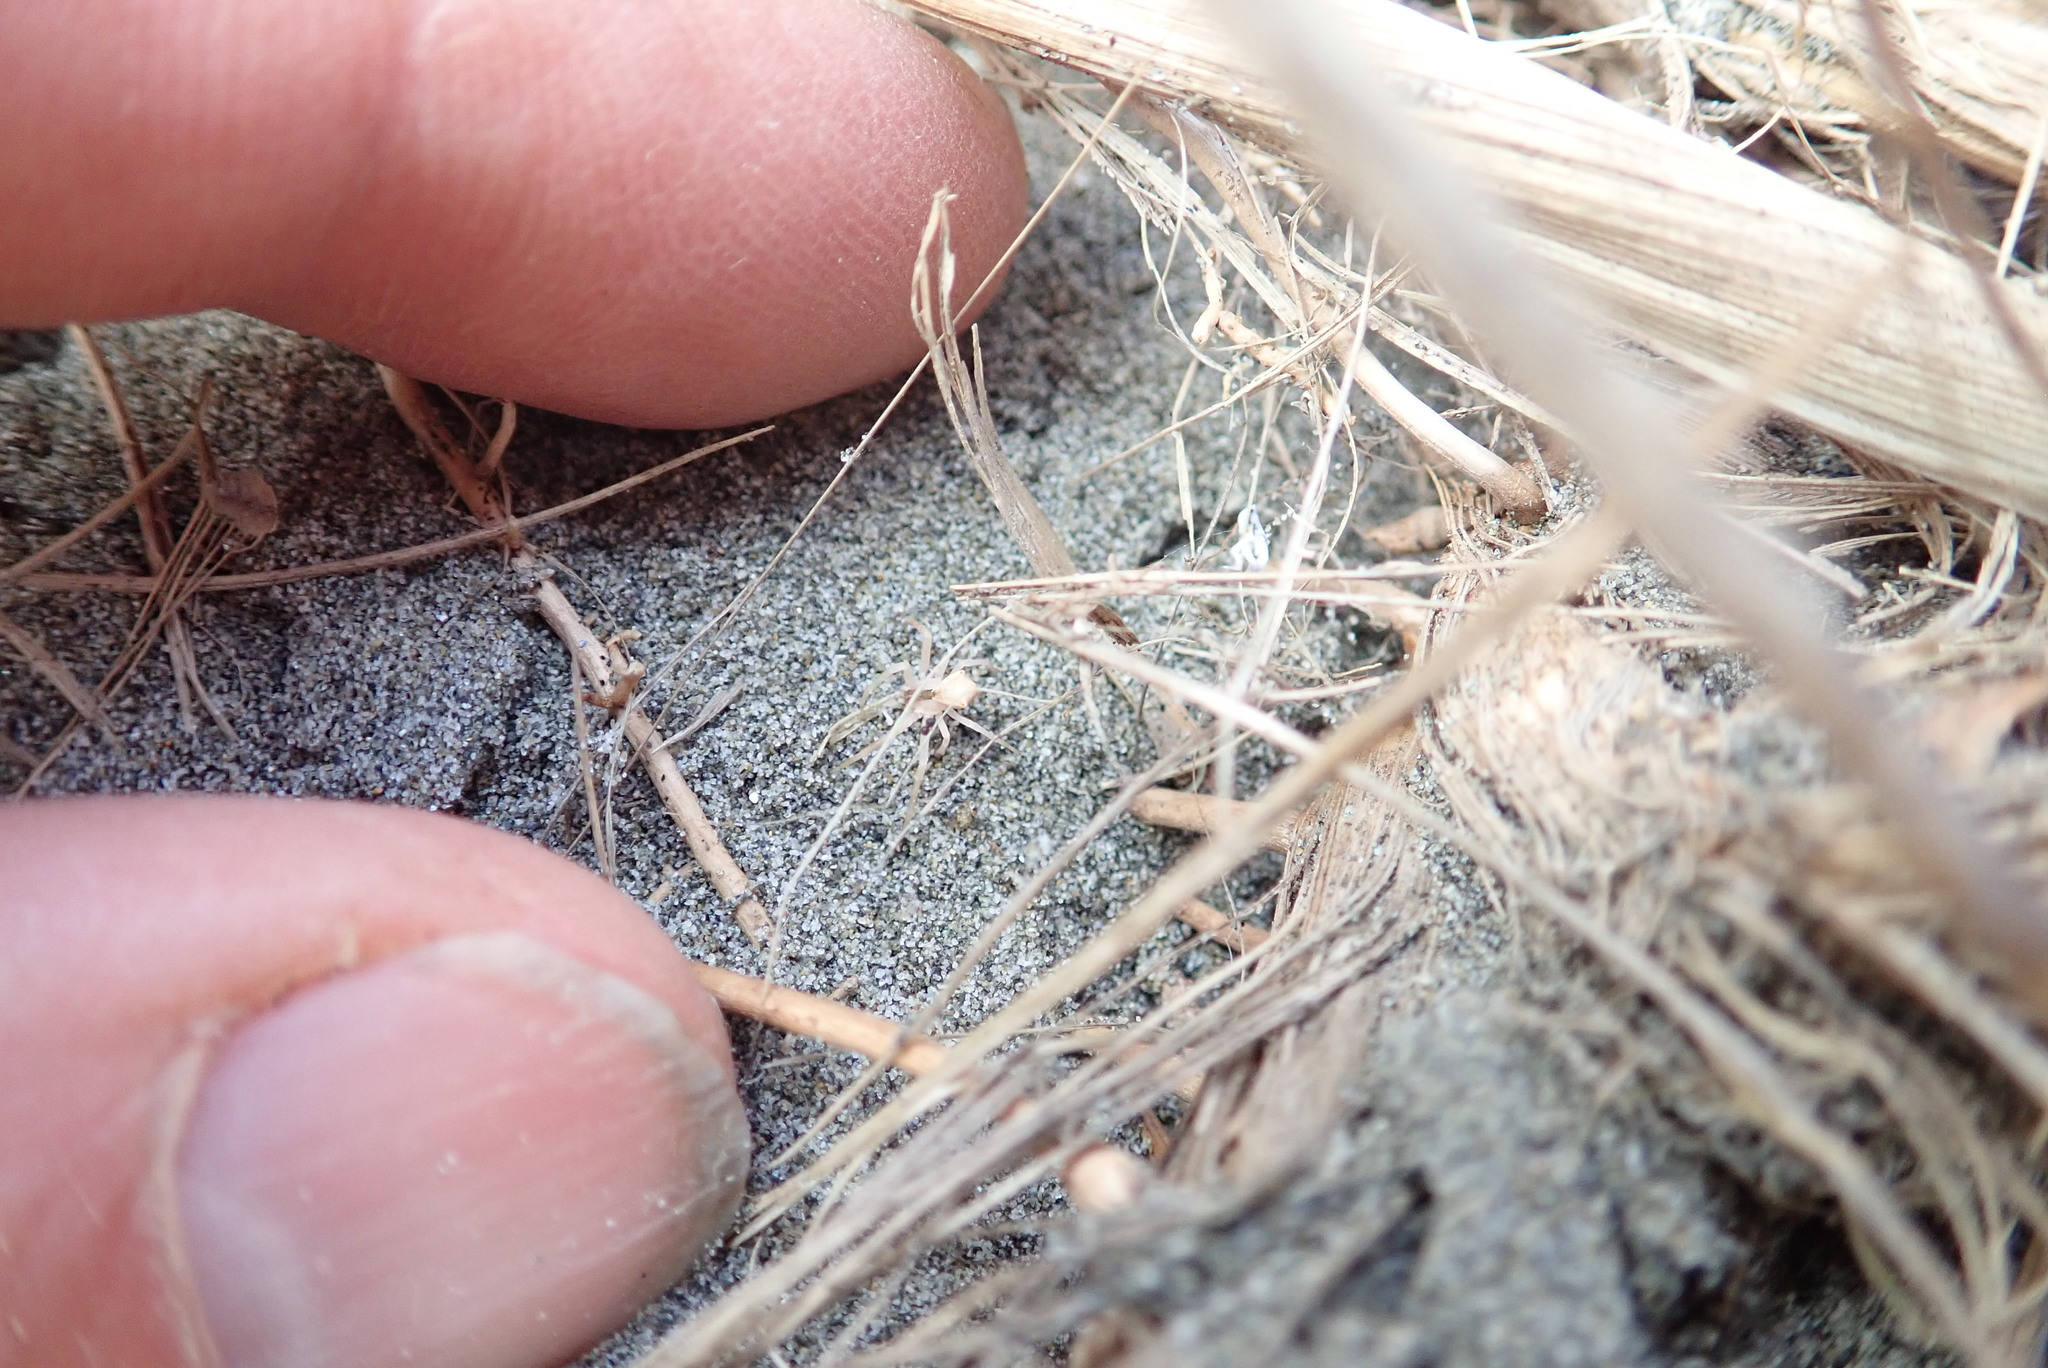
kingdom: Animalia
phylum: Arthropoda
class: Arachnida
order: Araneae
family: Thomisidae
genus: Sidymella
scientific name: Sidymella trapezia
